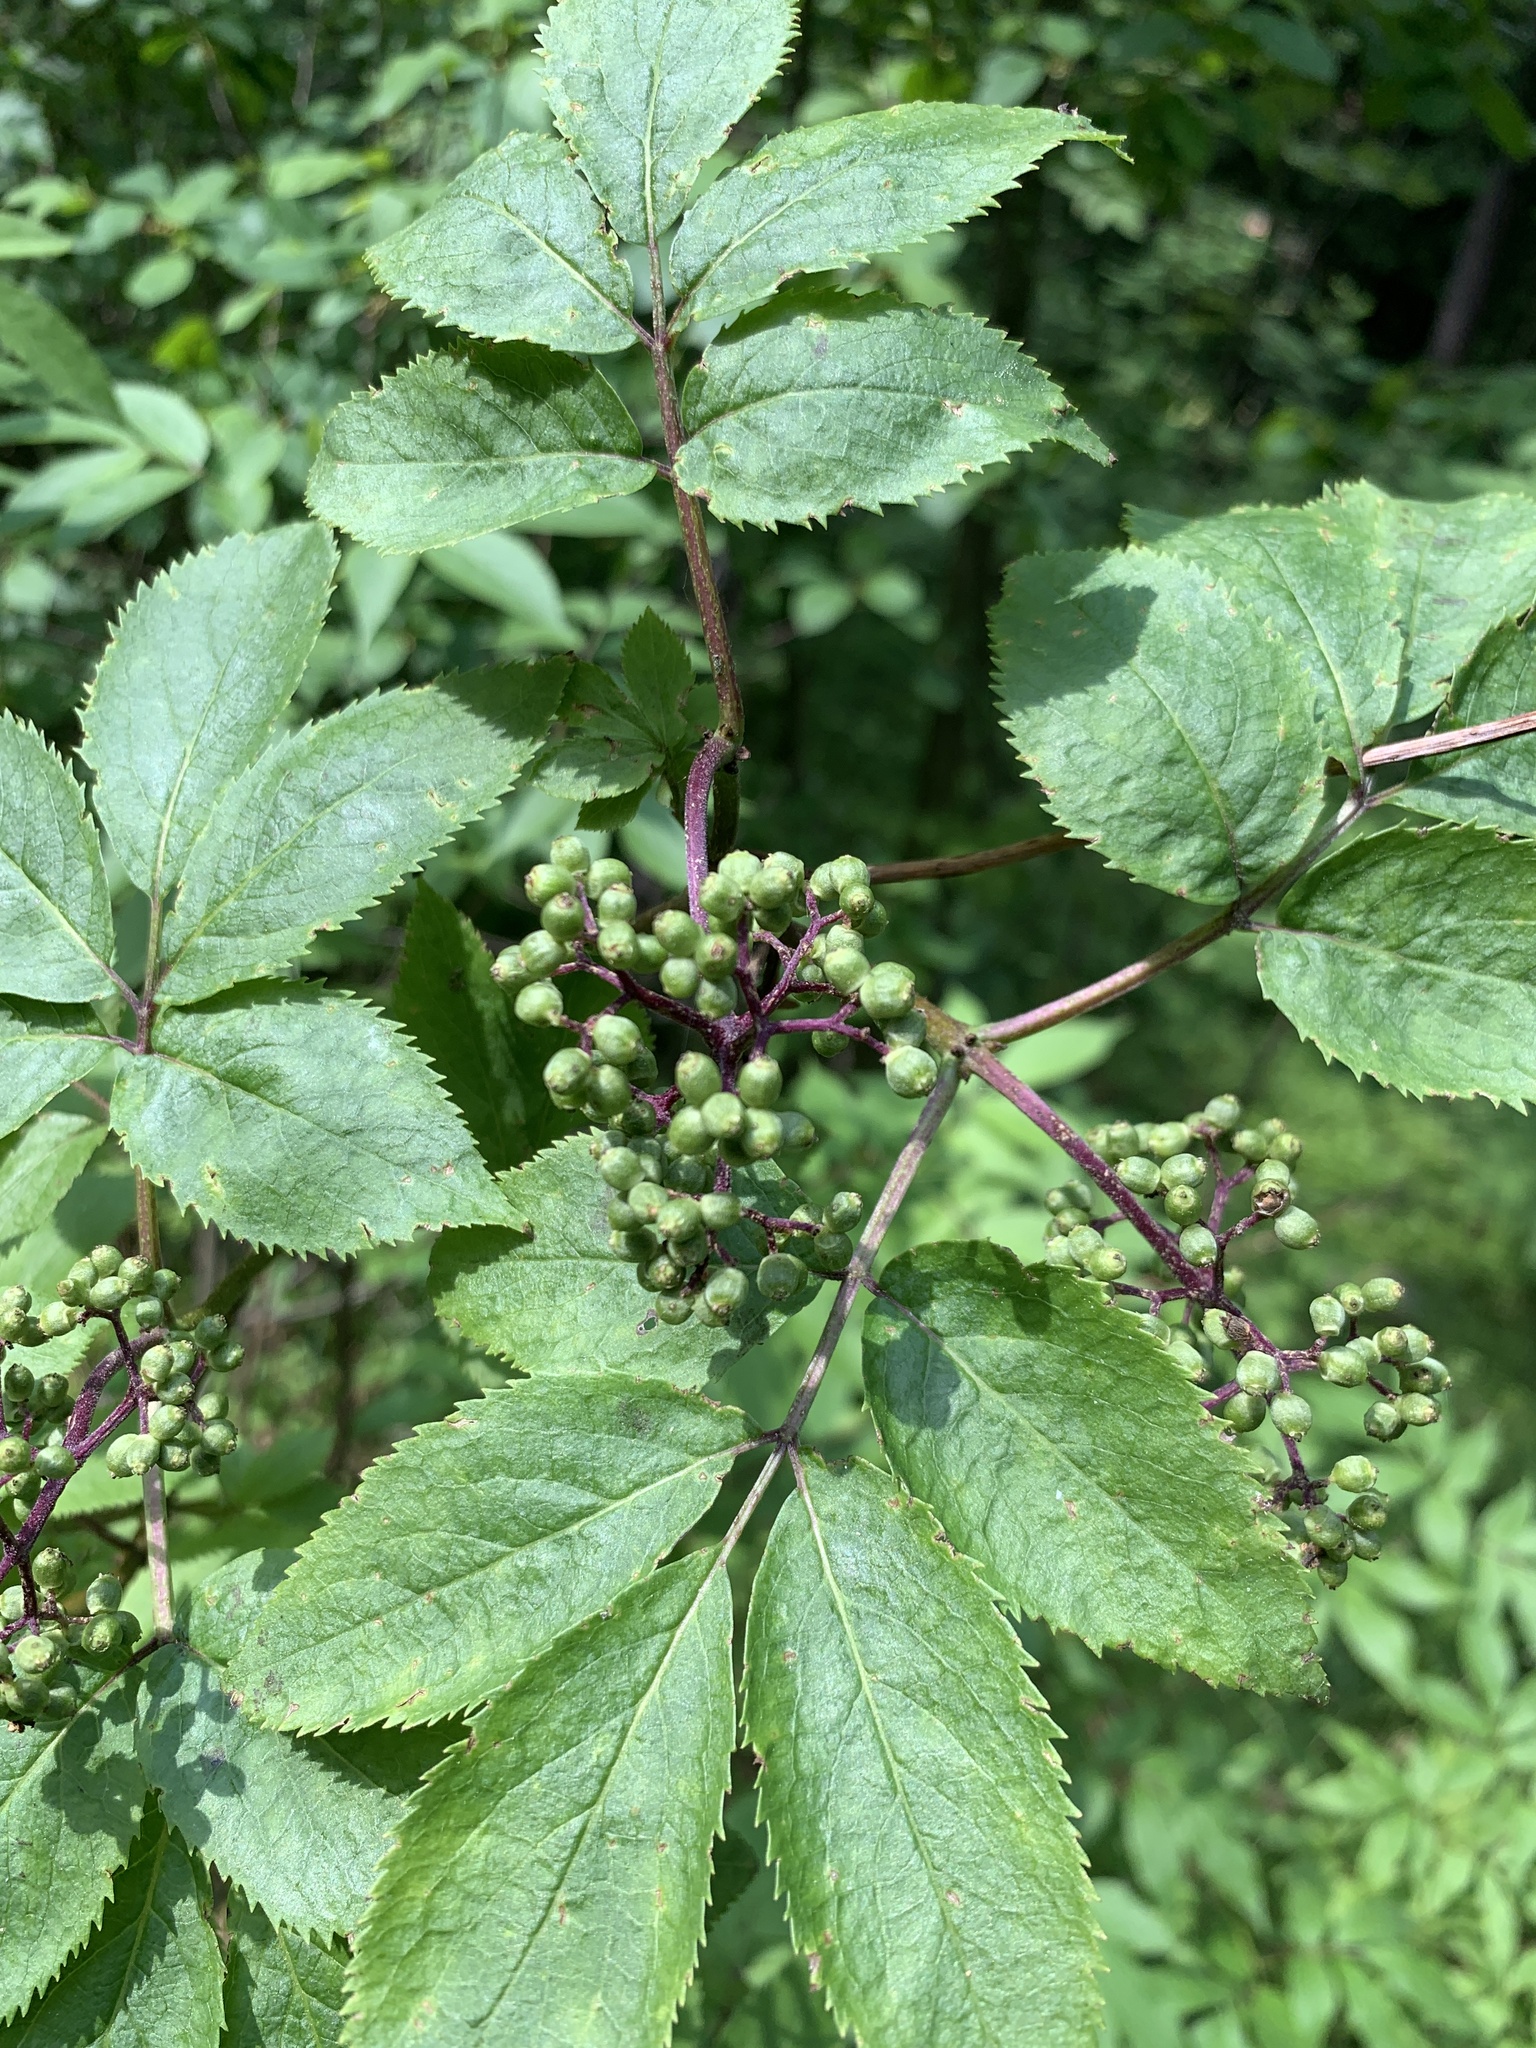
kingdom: Plantae
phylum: Tracheophyta
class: Magnoliopsida
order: Dipsacales
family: Viburnaceae
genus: Sambucus
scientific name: Sambucus racemosa
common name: Red-berried elder
